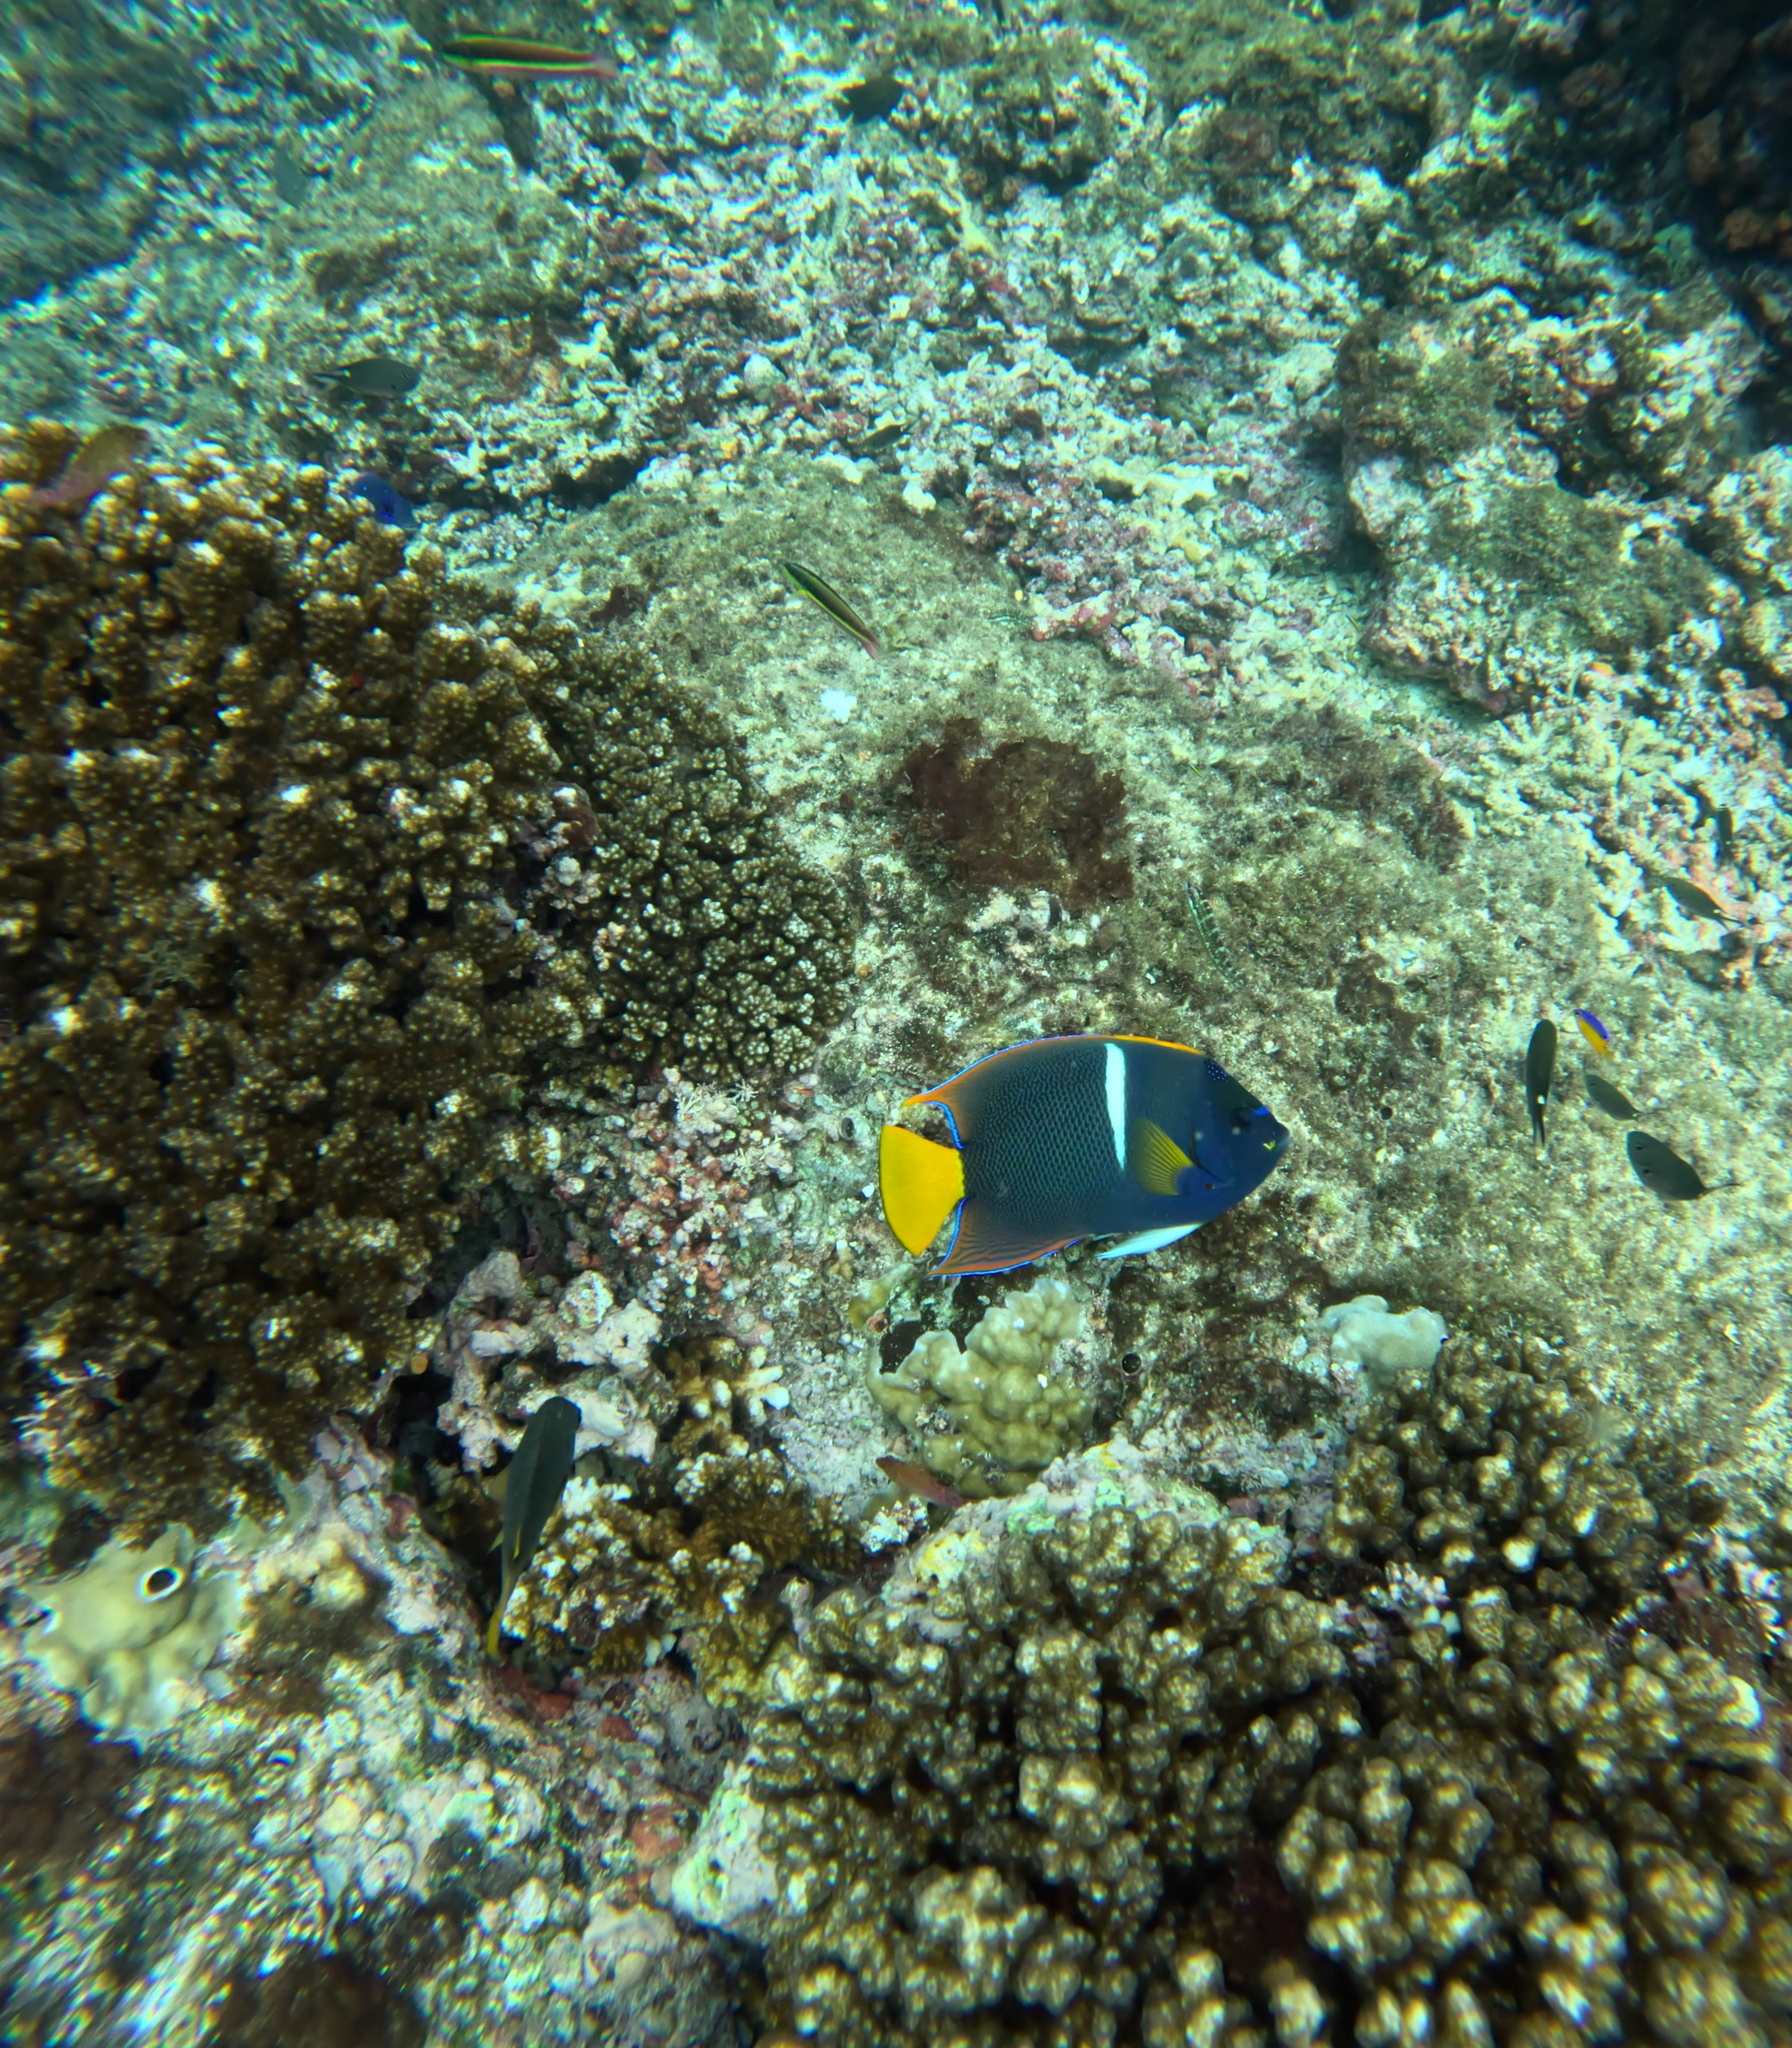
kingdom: Animalia
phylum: Chordata
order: Perciformes
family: Pomacanthidae
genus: Holacanthus
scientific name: Holacanthus passer
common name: King angelfish
